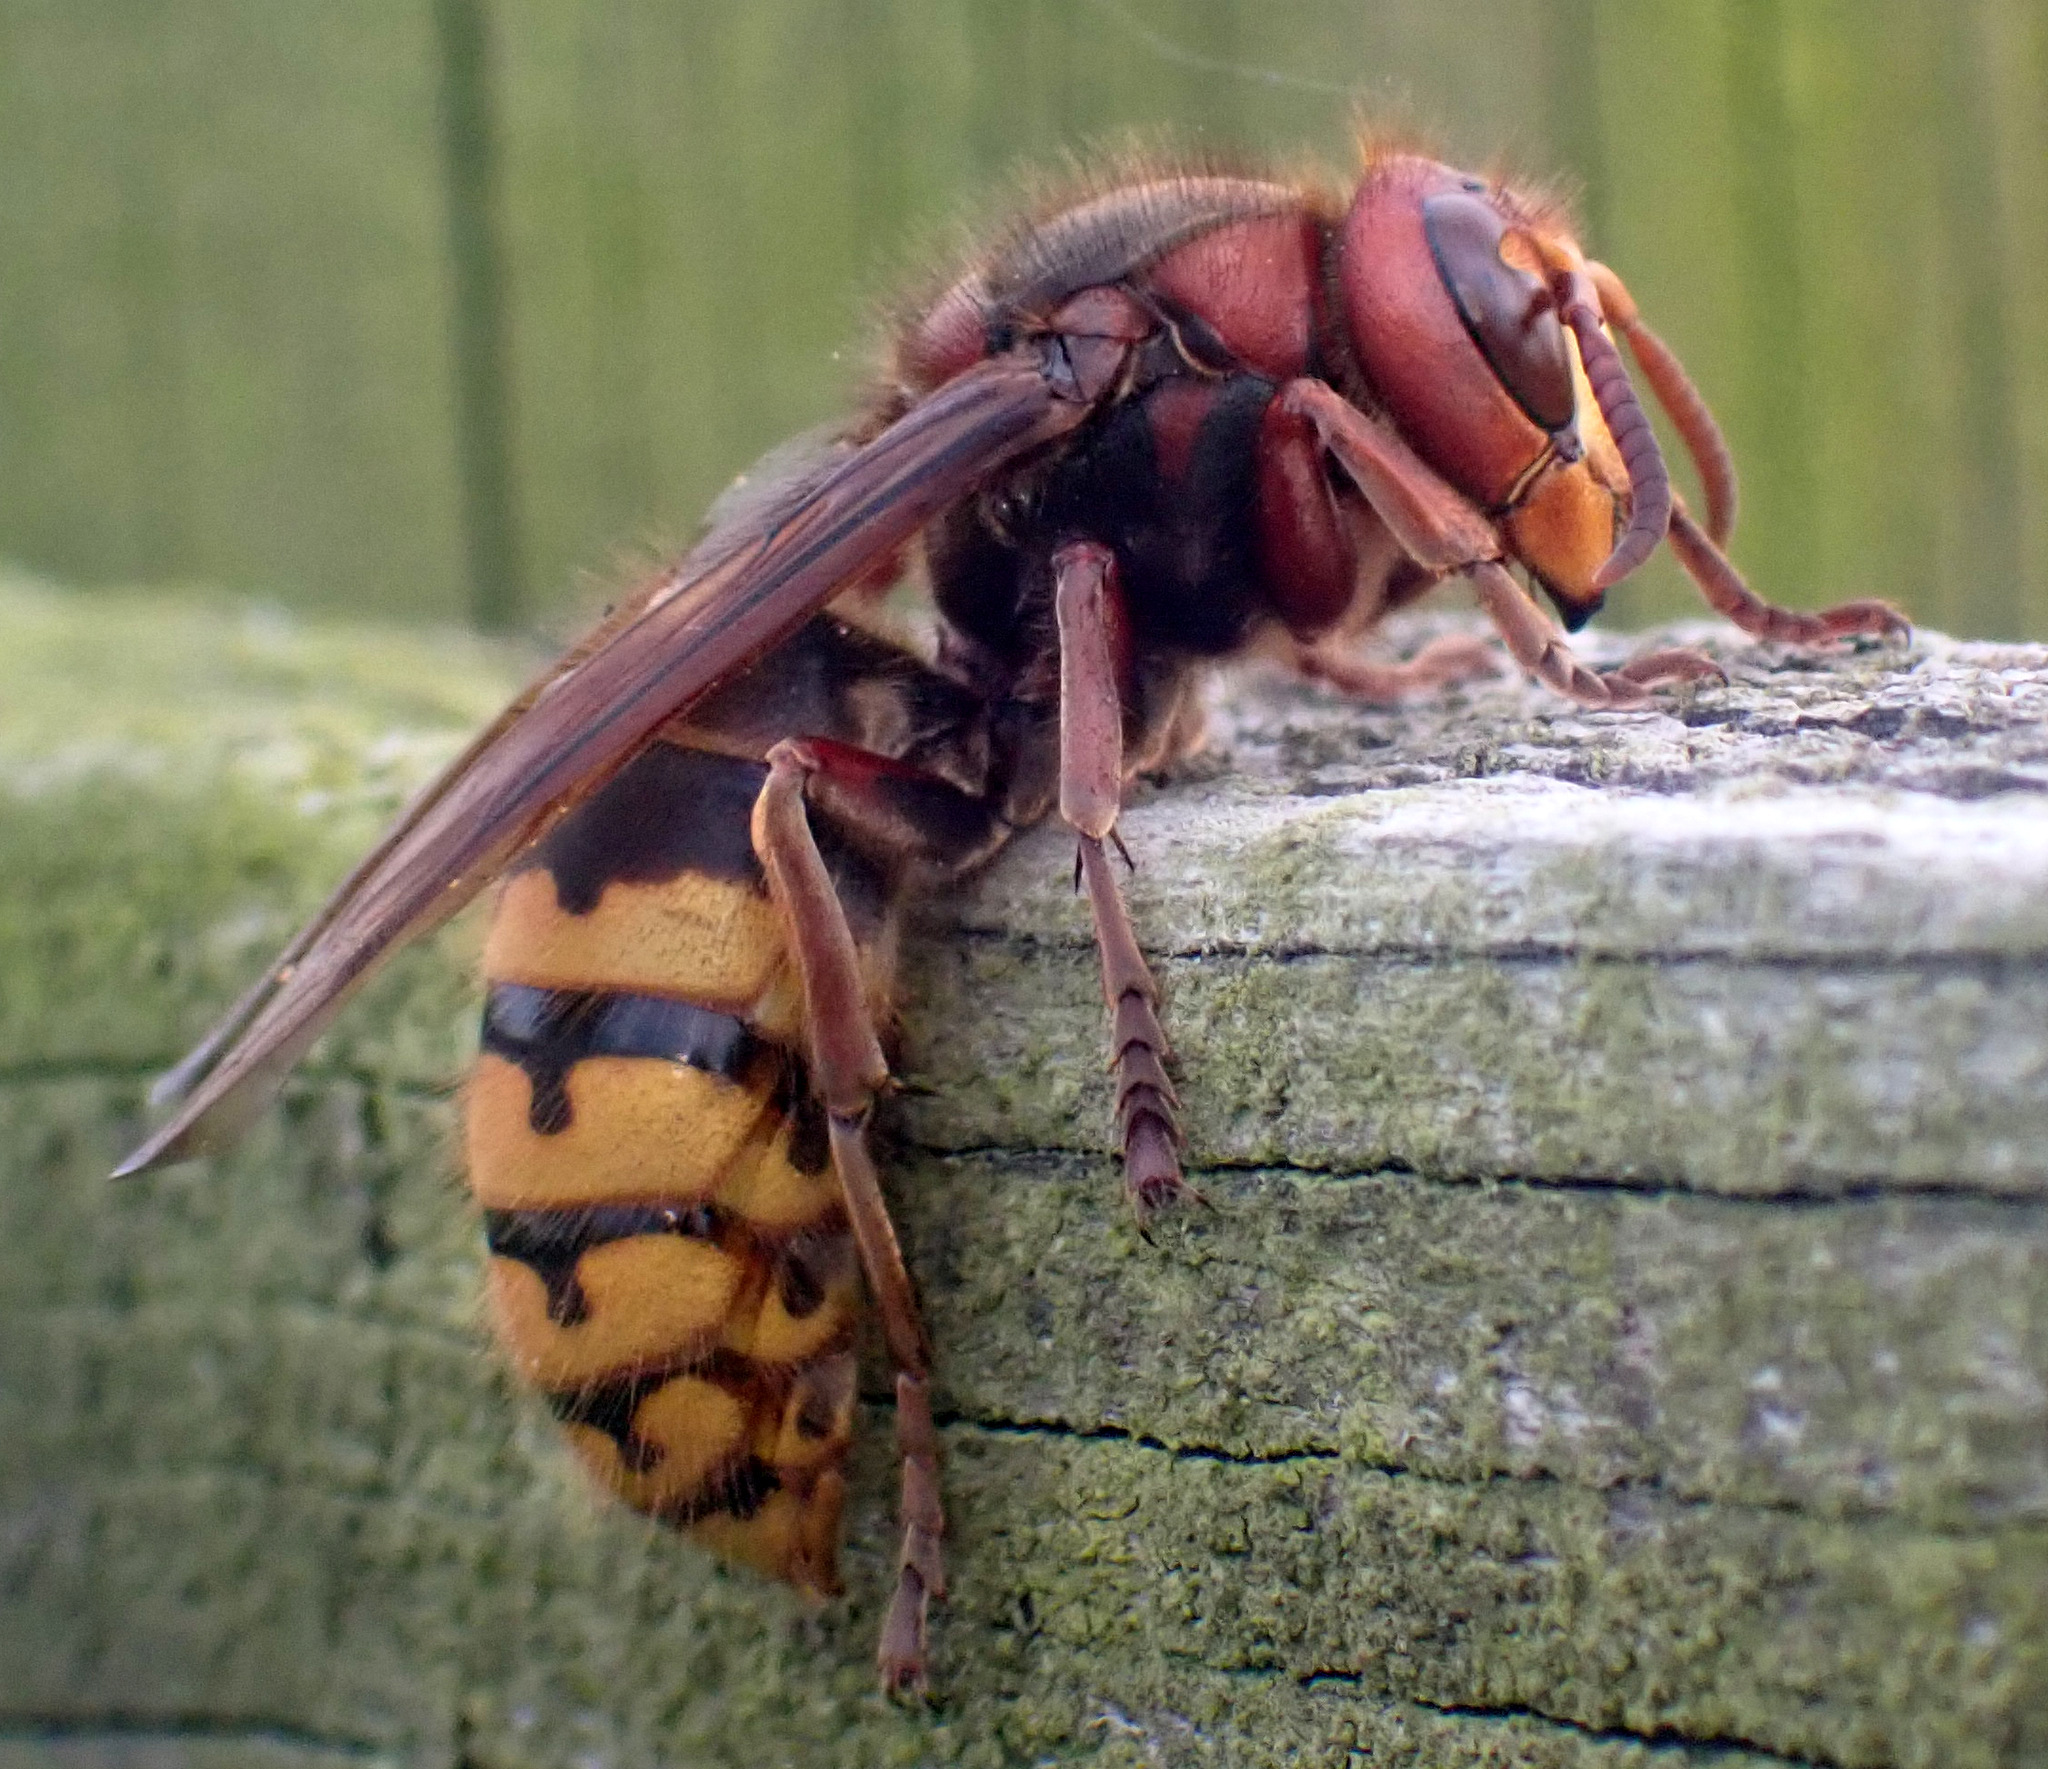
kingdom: Animalia
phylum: Arthropoda
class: Insecta
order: Hymenoptera
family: Vespidae
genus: Vespa
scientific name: Vespa crabro
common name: Hornet
